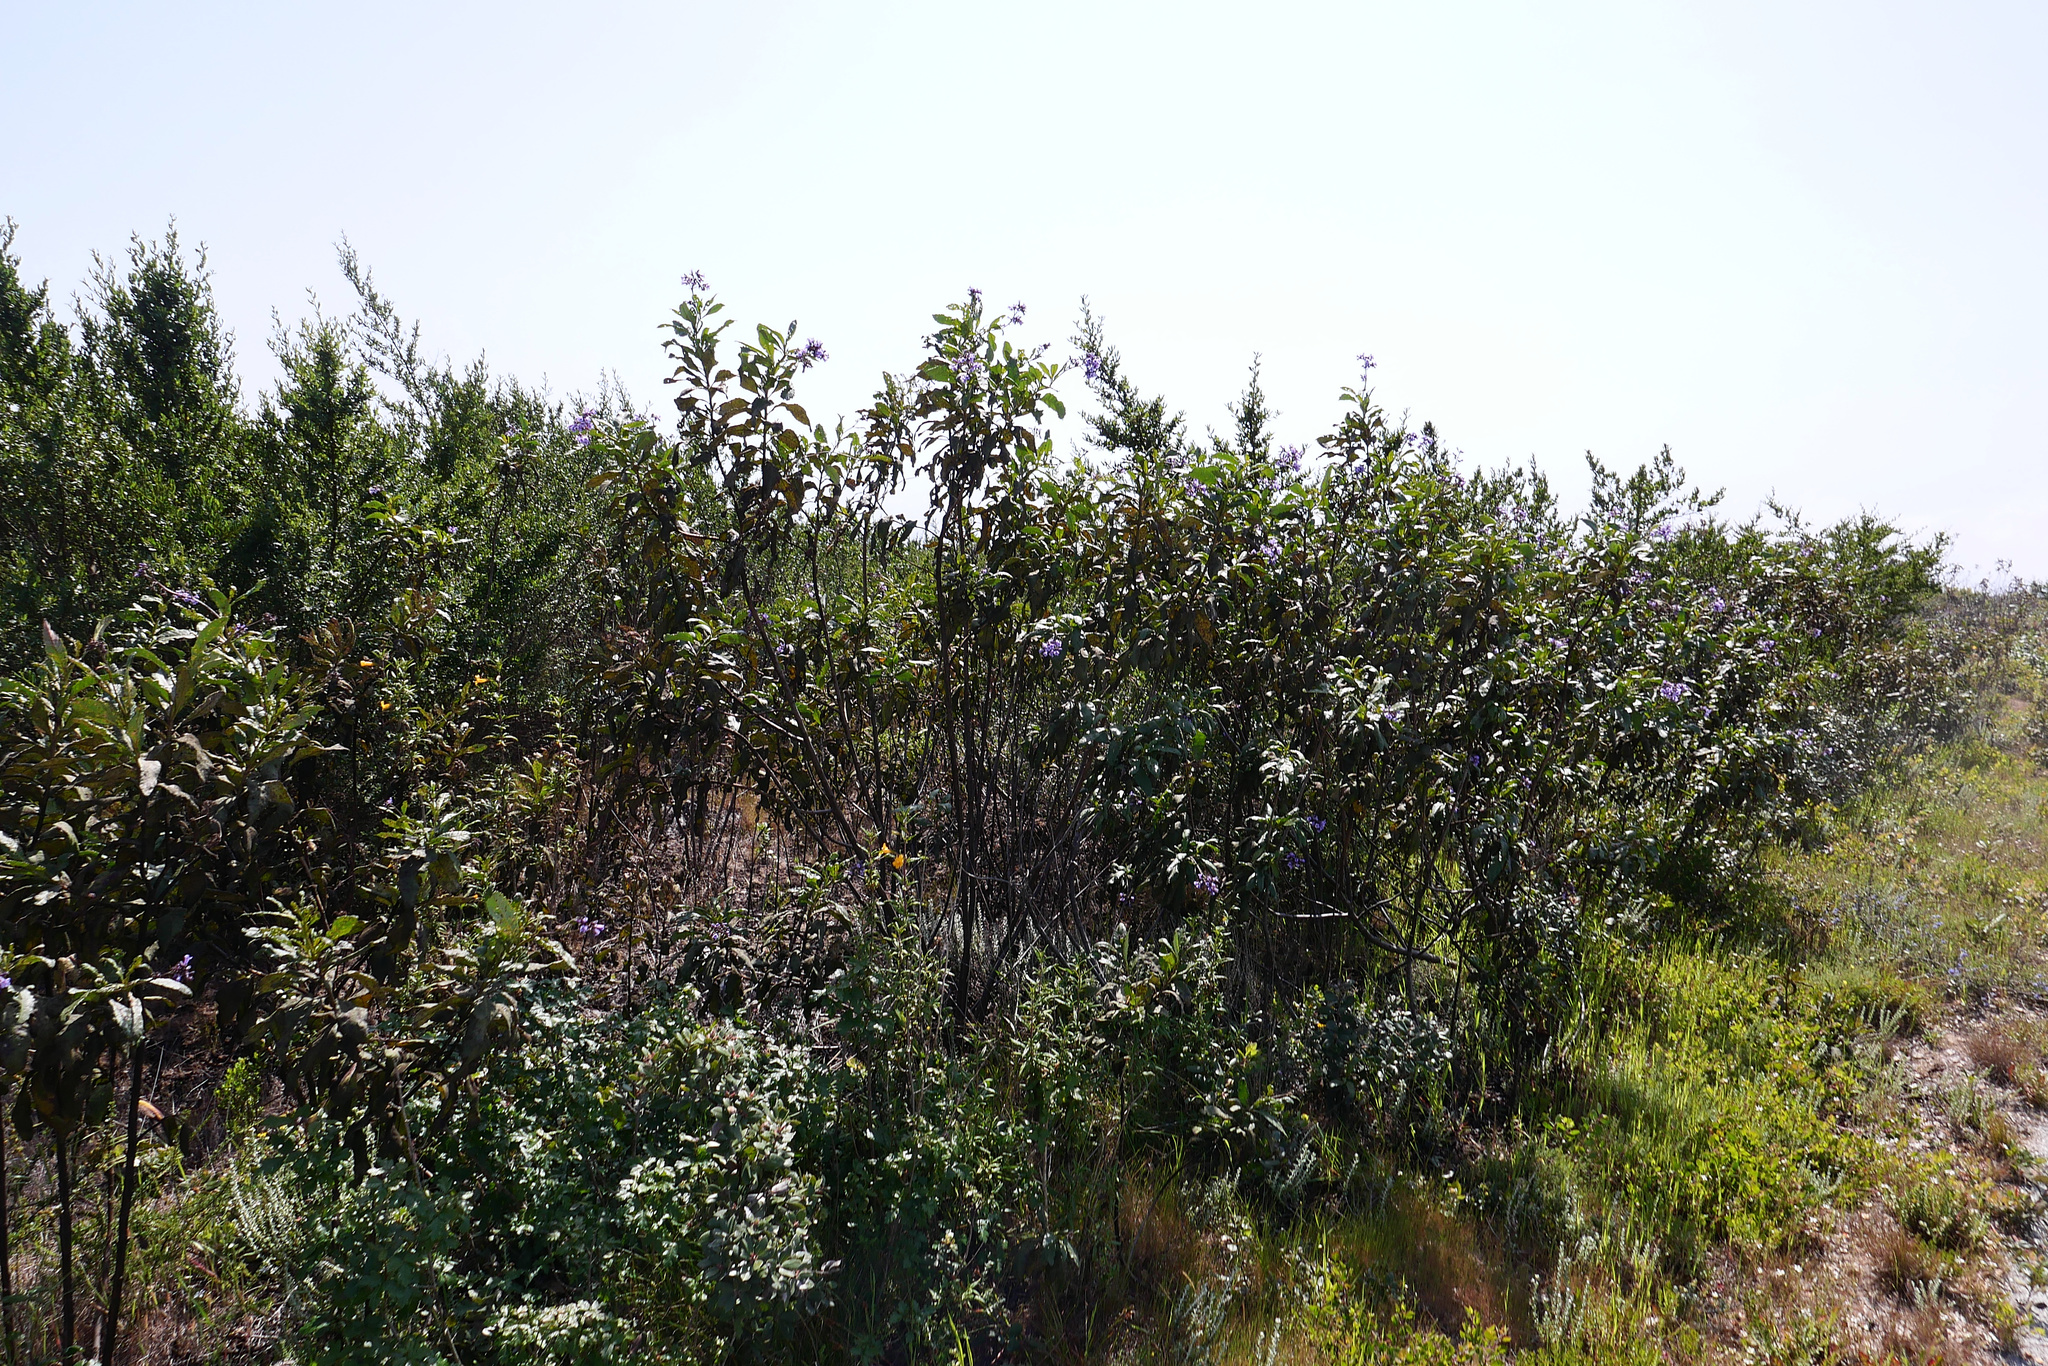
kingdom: Plantae
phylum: Tracheophyta
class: Magnoliopsida
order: Boraginales
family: Namaceae
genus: Eriodictyon
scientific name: Eriodictyon californicum
